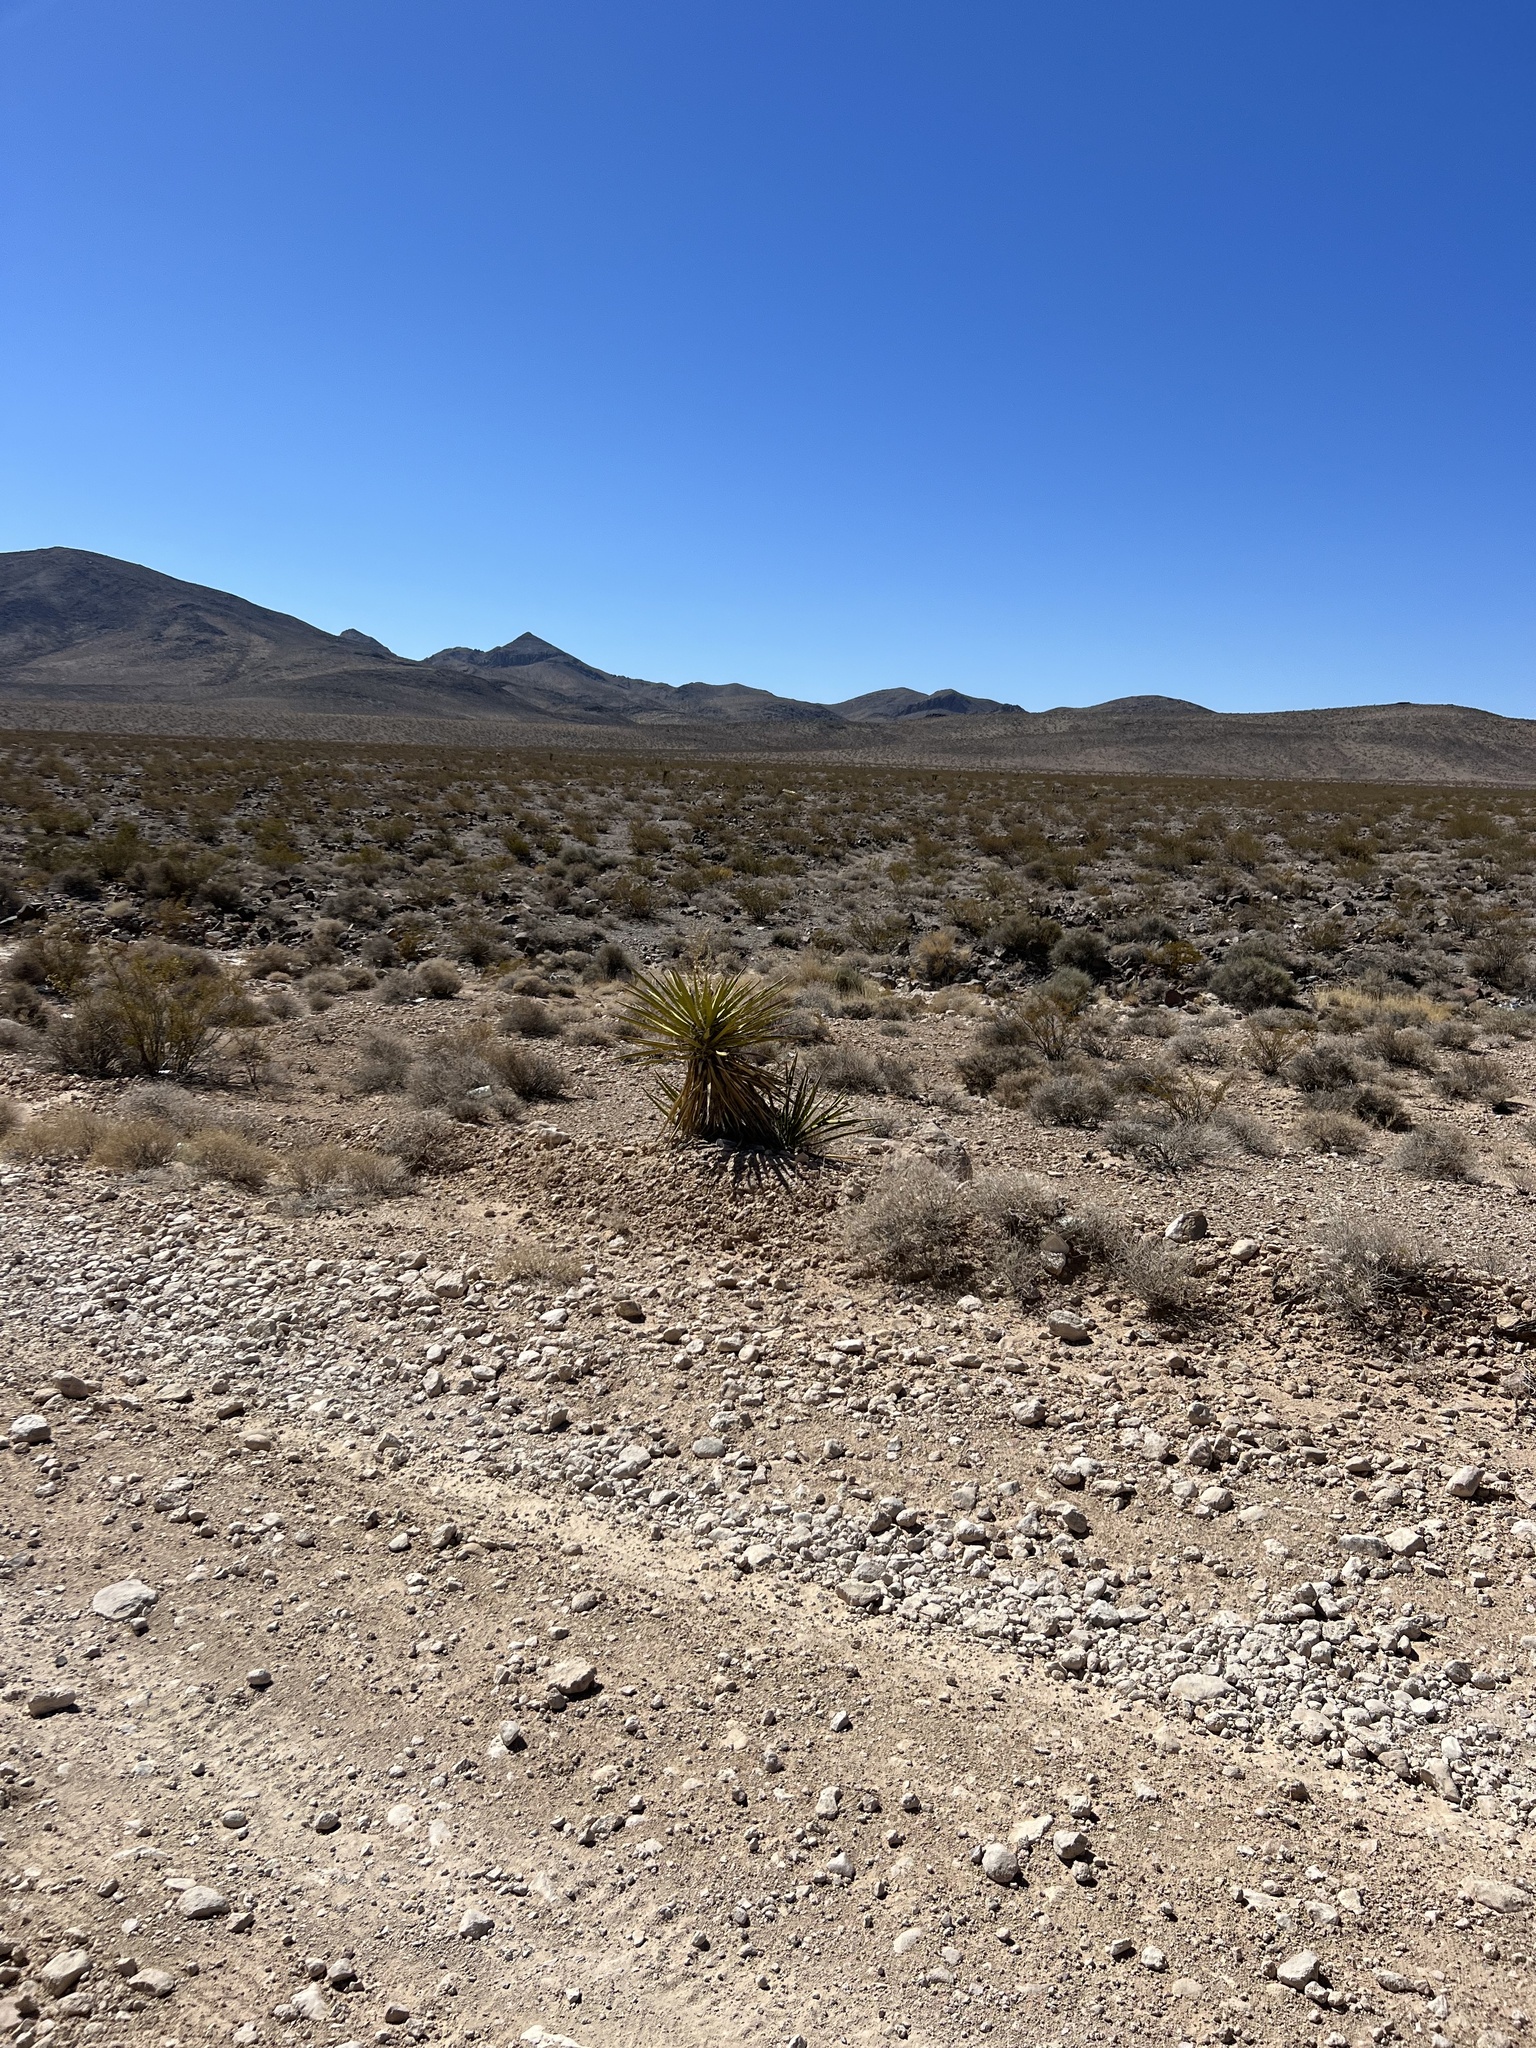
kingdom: Plantae
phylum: Tracheophyta
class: Liliopsida
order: Asparagales
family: Asparagaceae
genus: Yucca
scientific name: Yucca schidigera
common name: Mojave yucca
